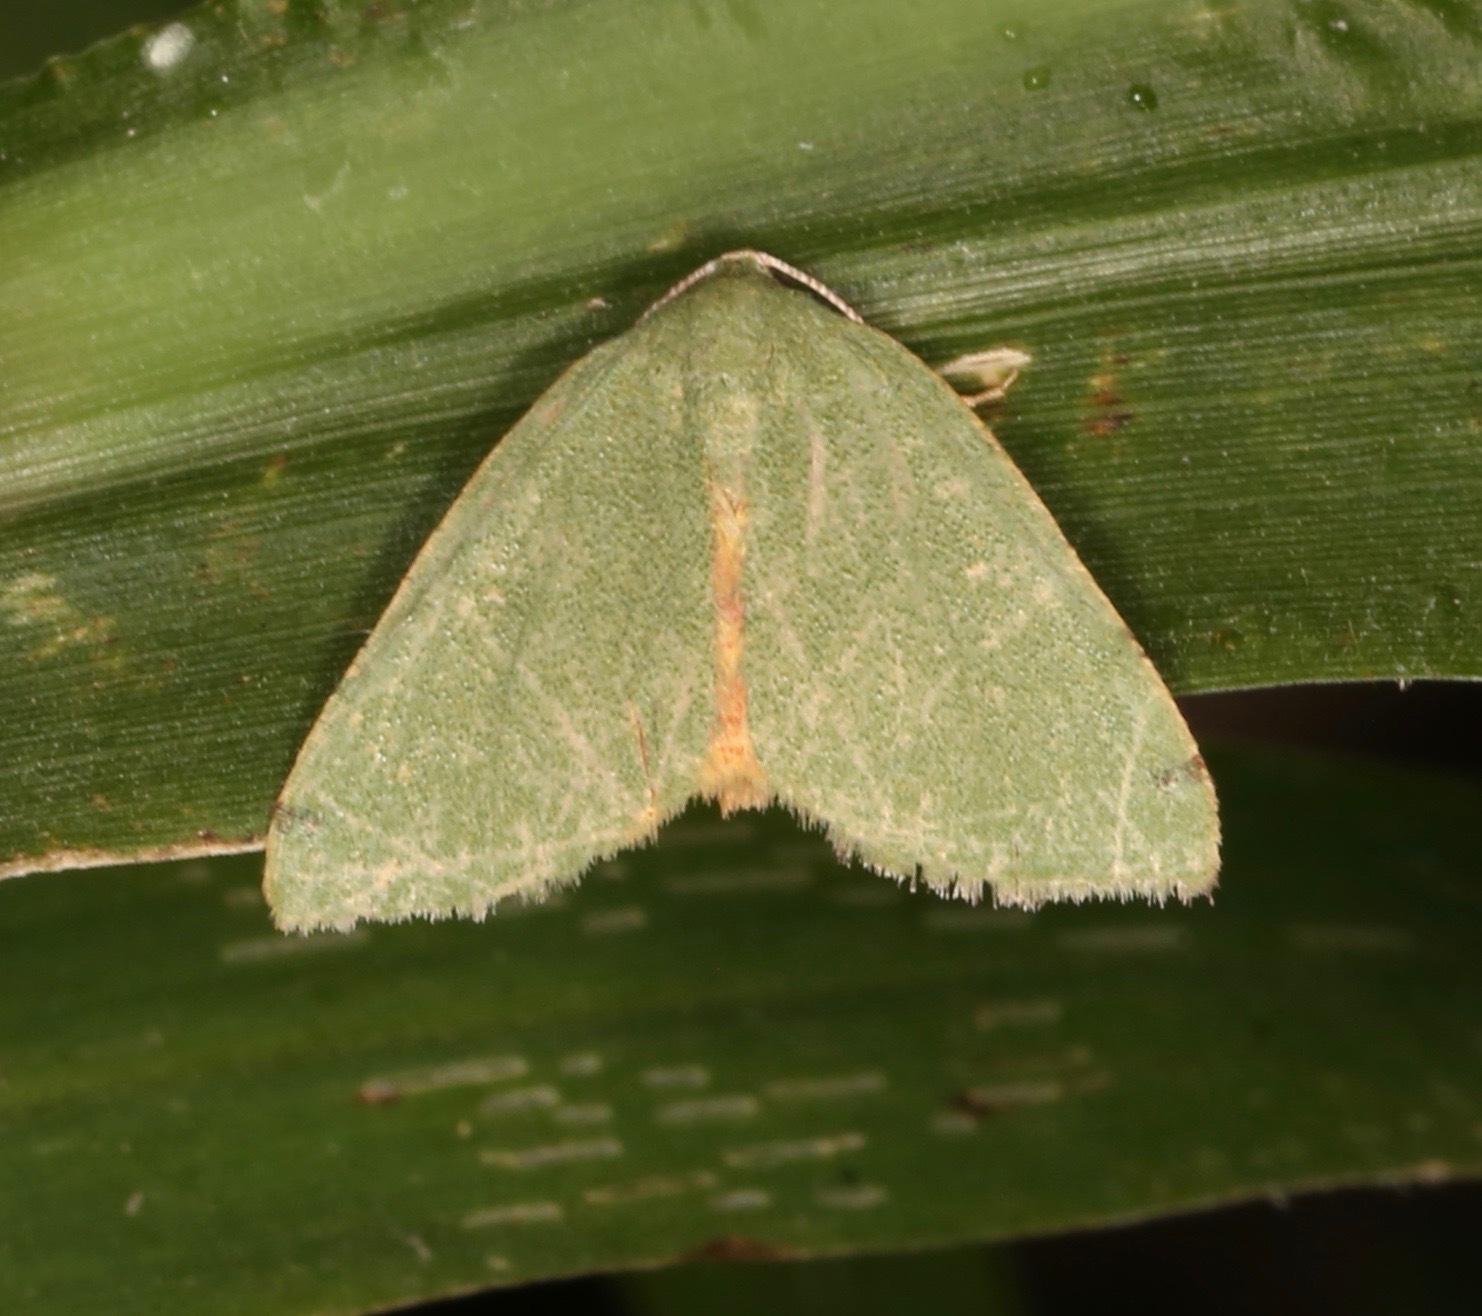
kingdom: Animalia
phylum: Arthropoda
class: Insecta
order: Lepidoptera
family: Geometridae
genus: Chloraspilates
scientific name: Chloraspilates bicoloraria
